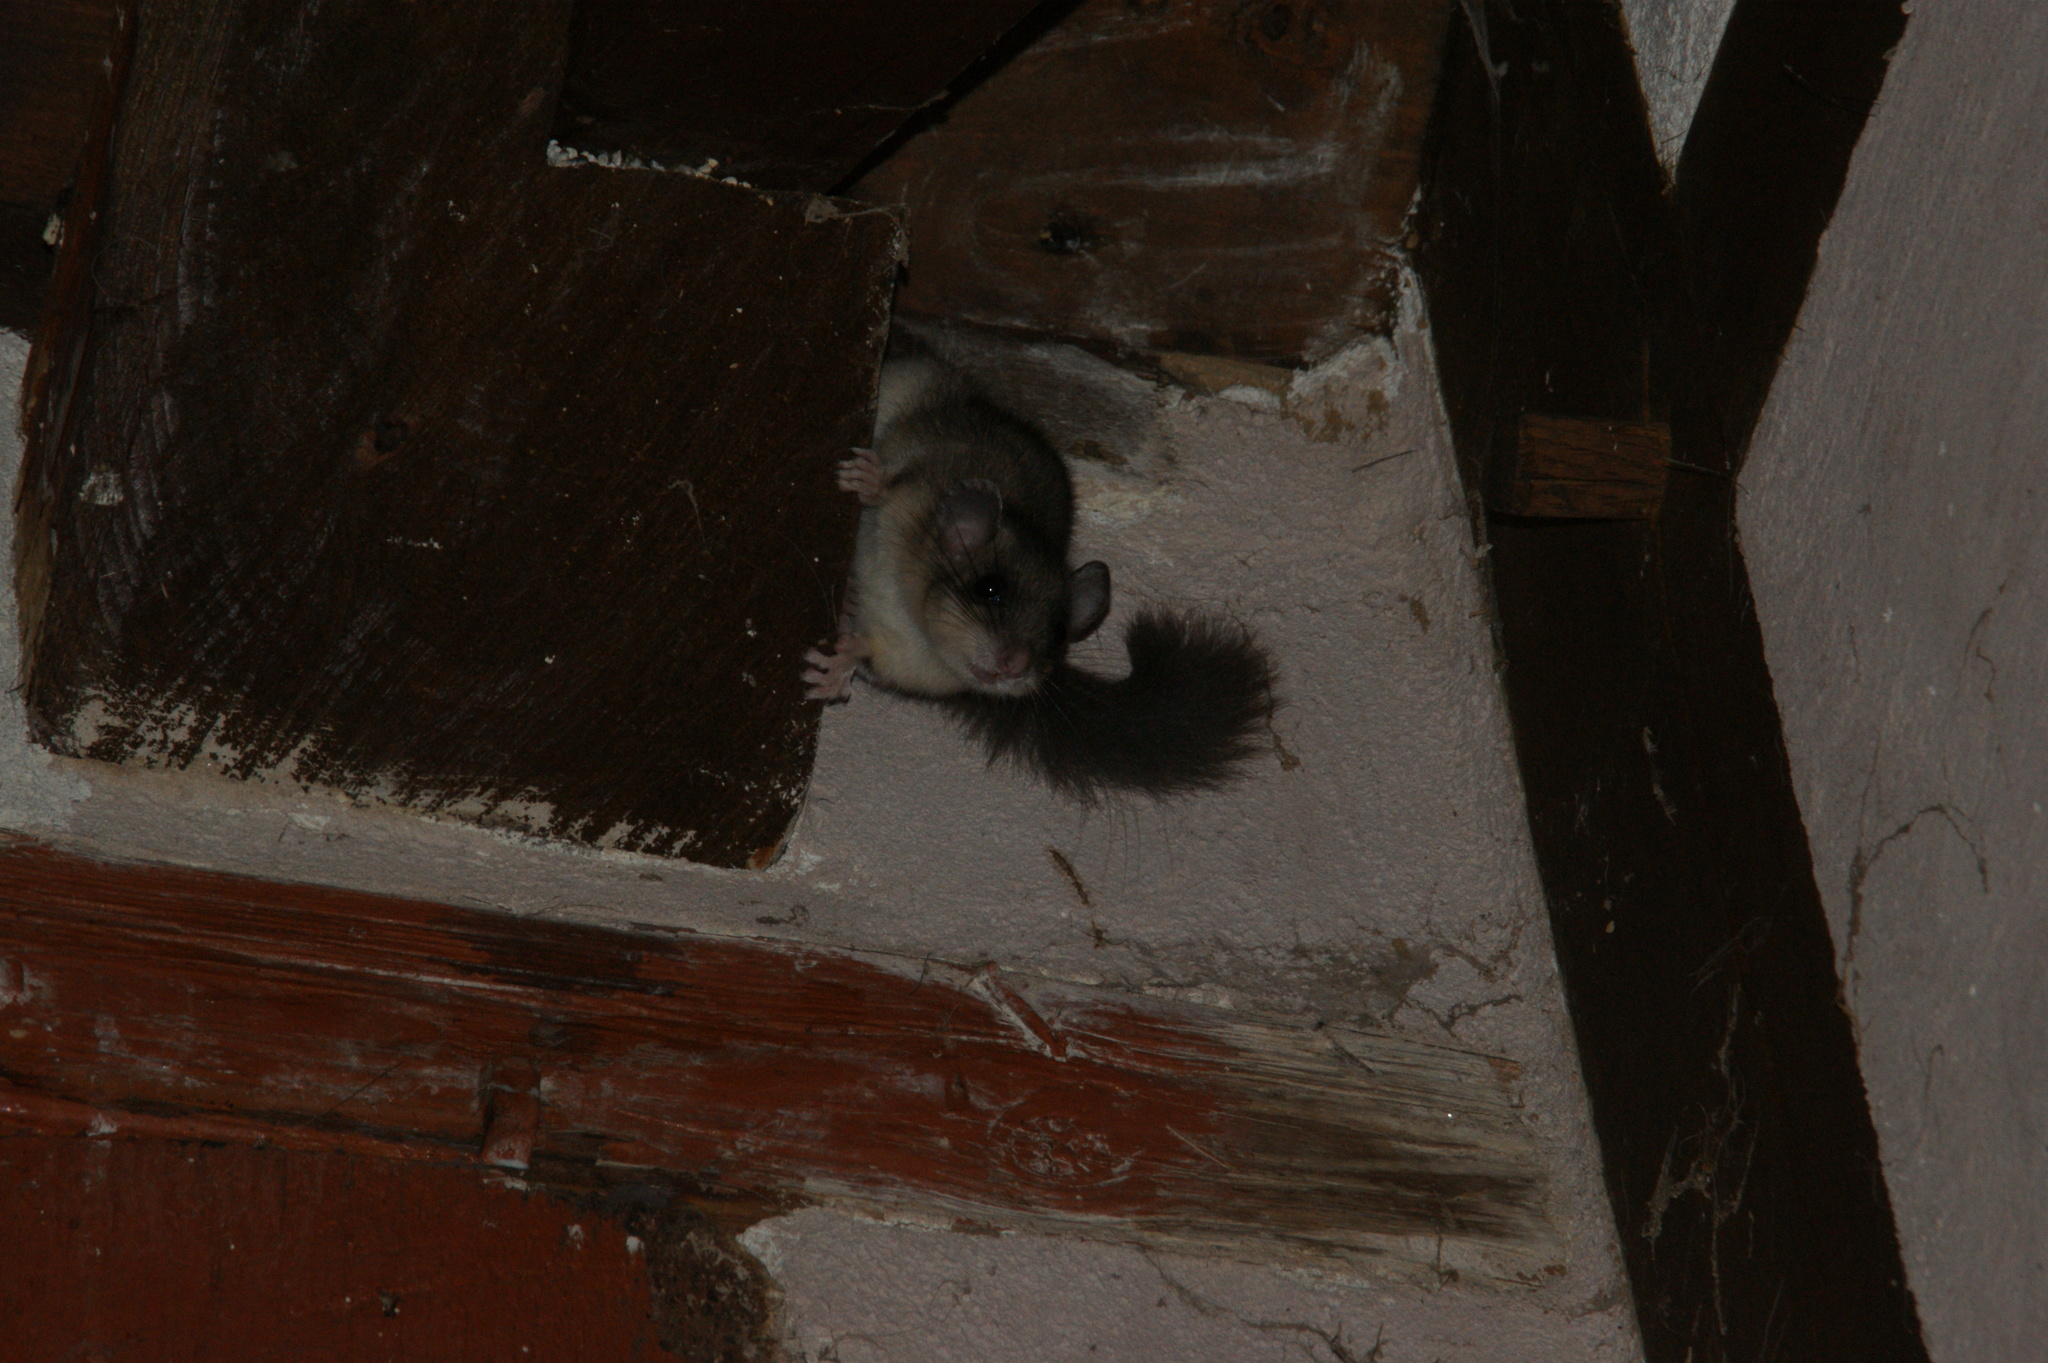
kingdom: Animalia
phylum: Chordata
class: Mammalia
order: Rodentia
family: Gliridae
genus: Glis
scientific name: Glis glis
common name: Fat dormouse
